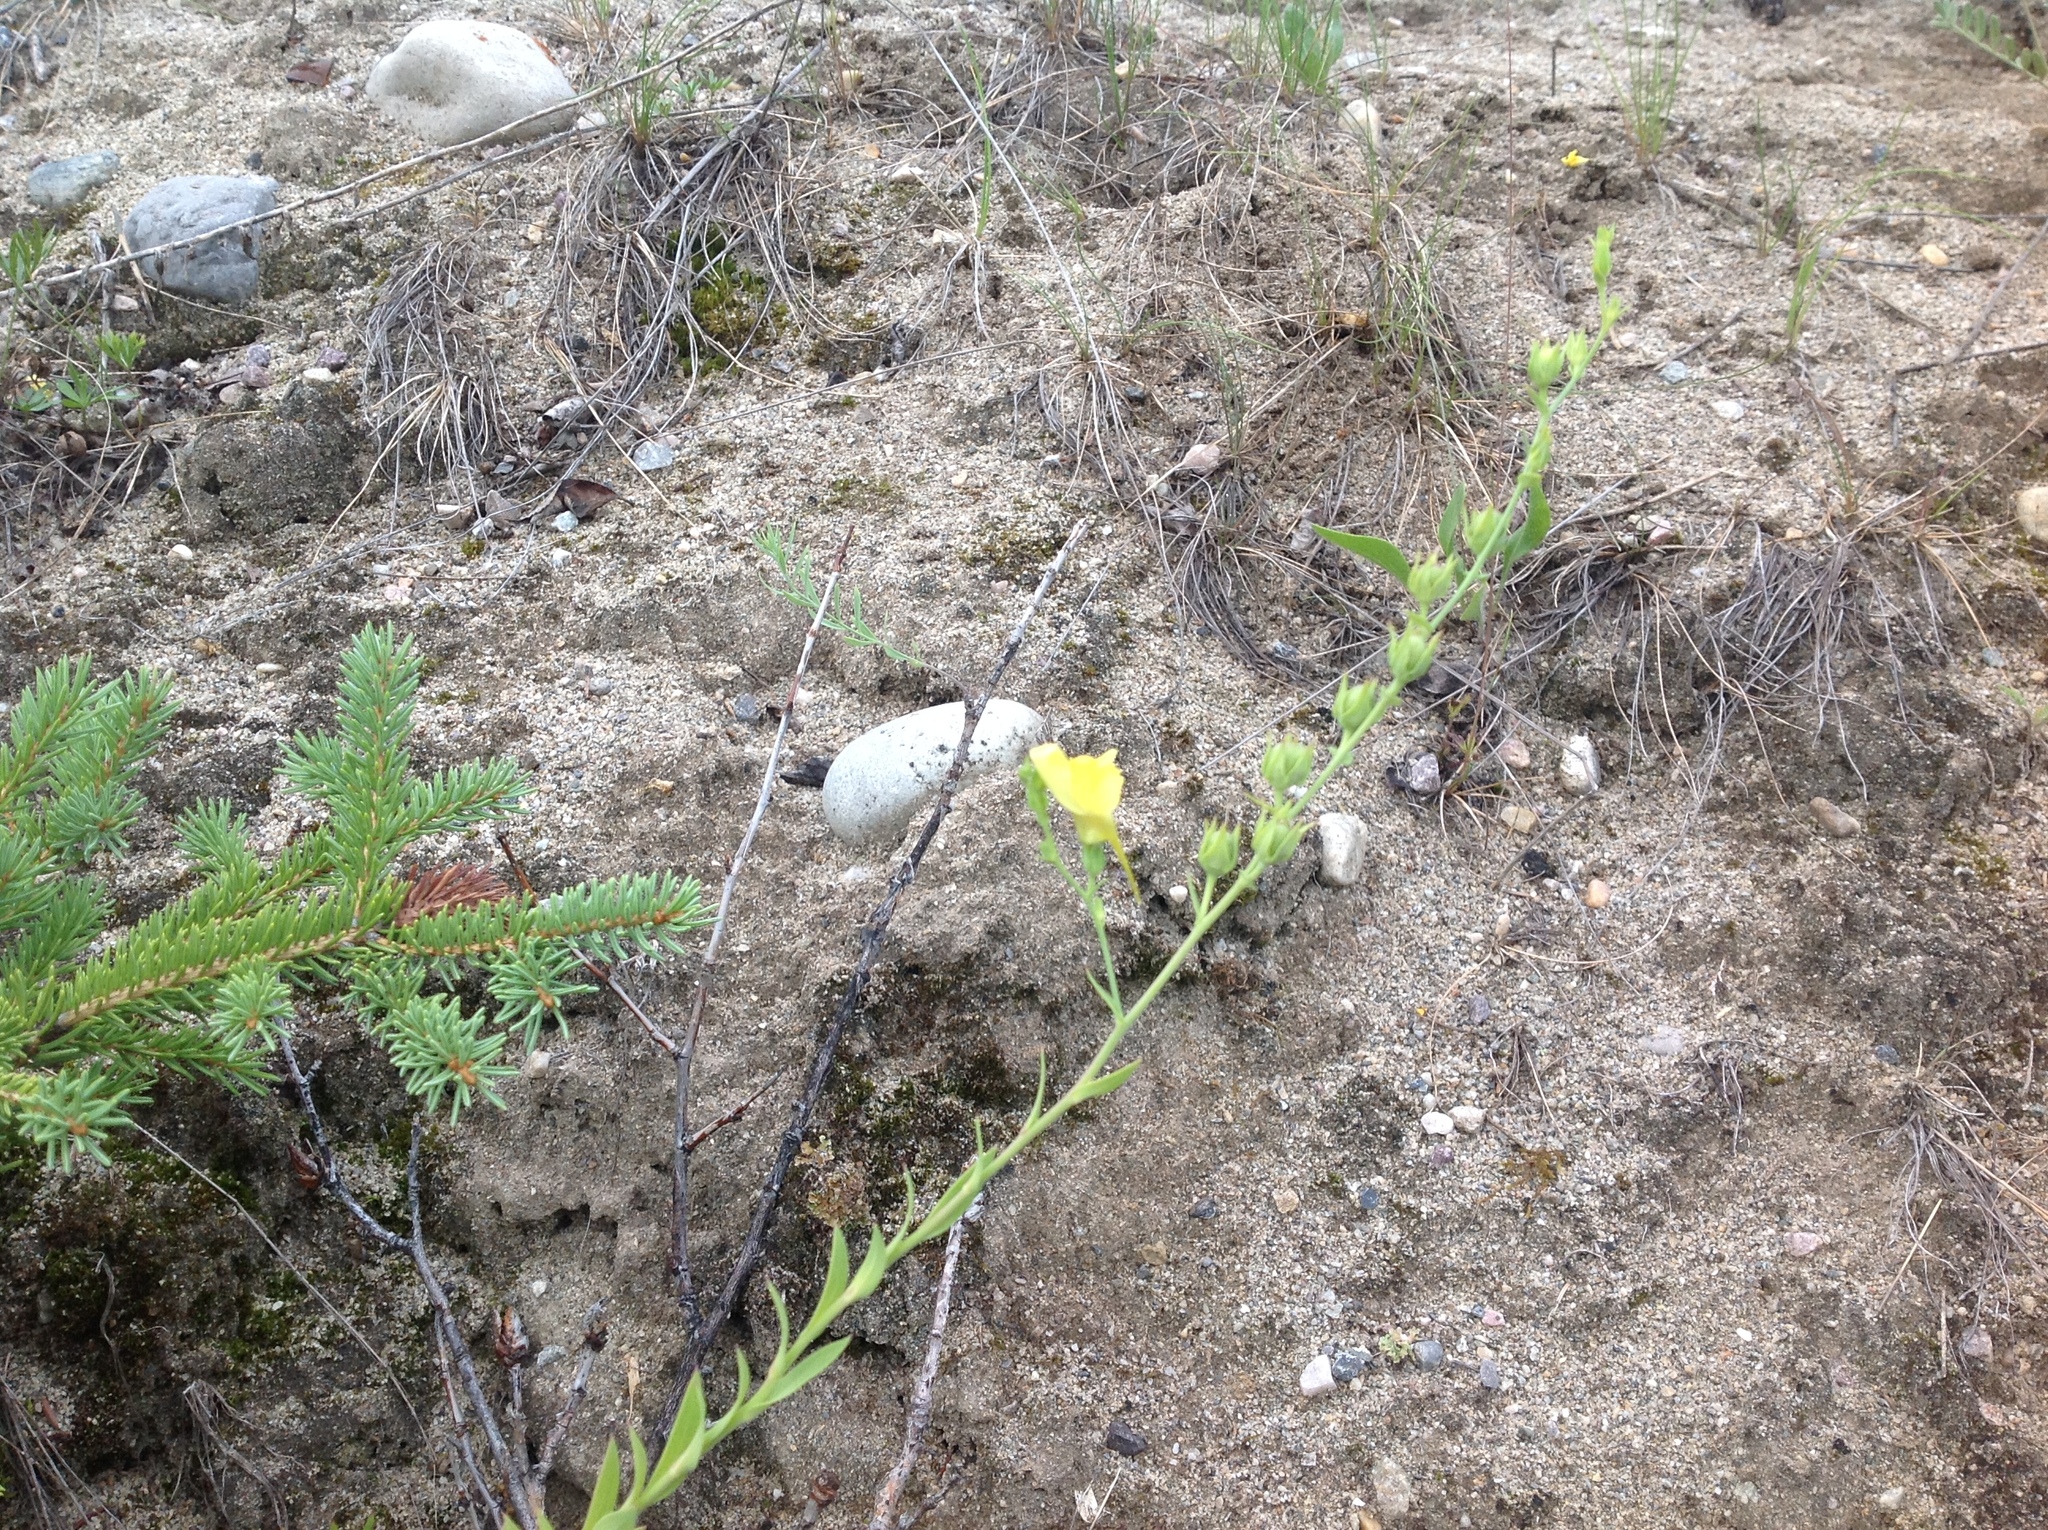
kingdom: Plantae
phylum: Tracheophyta
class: Magnoliopsida
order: Lamiales
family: Plantaginaceae
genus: Linaria
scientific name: Linaria dalmatica
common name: Dalmatian toadflax
